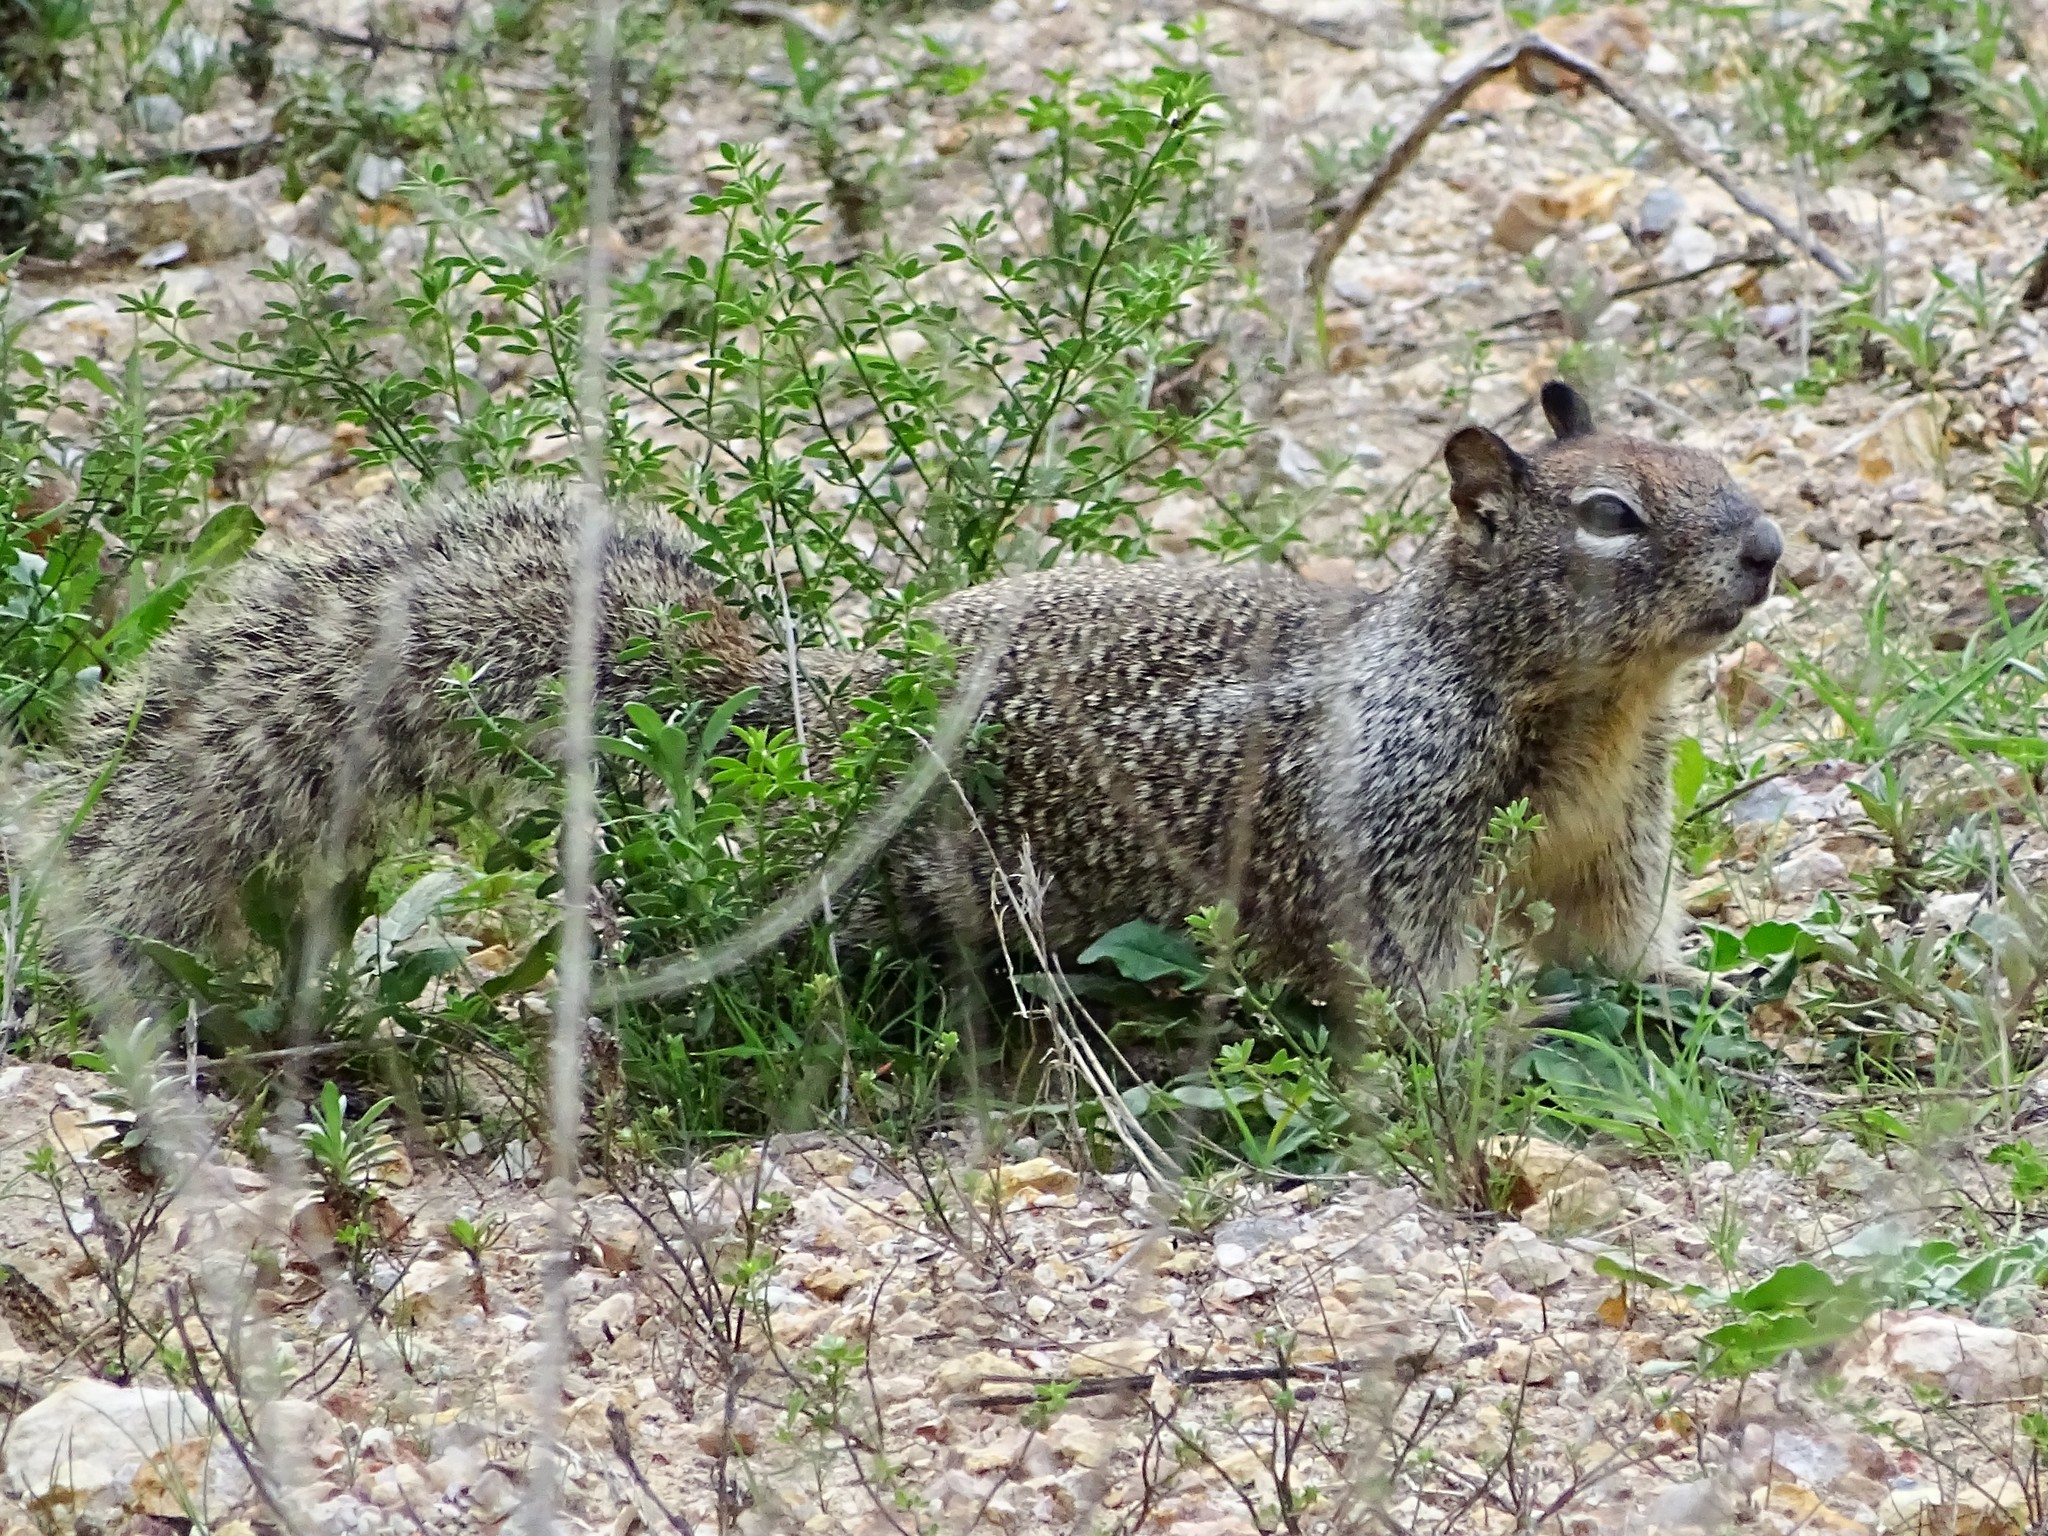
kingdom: Animalia
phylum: Chordata
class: Mammalia
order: Rodentia
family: Sciuridae
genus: Otospermophilus
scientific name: Otospermophilus beecheyi
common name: California ground squirrel
